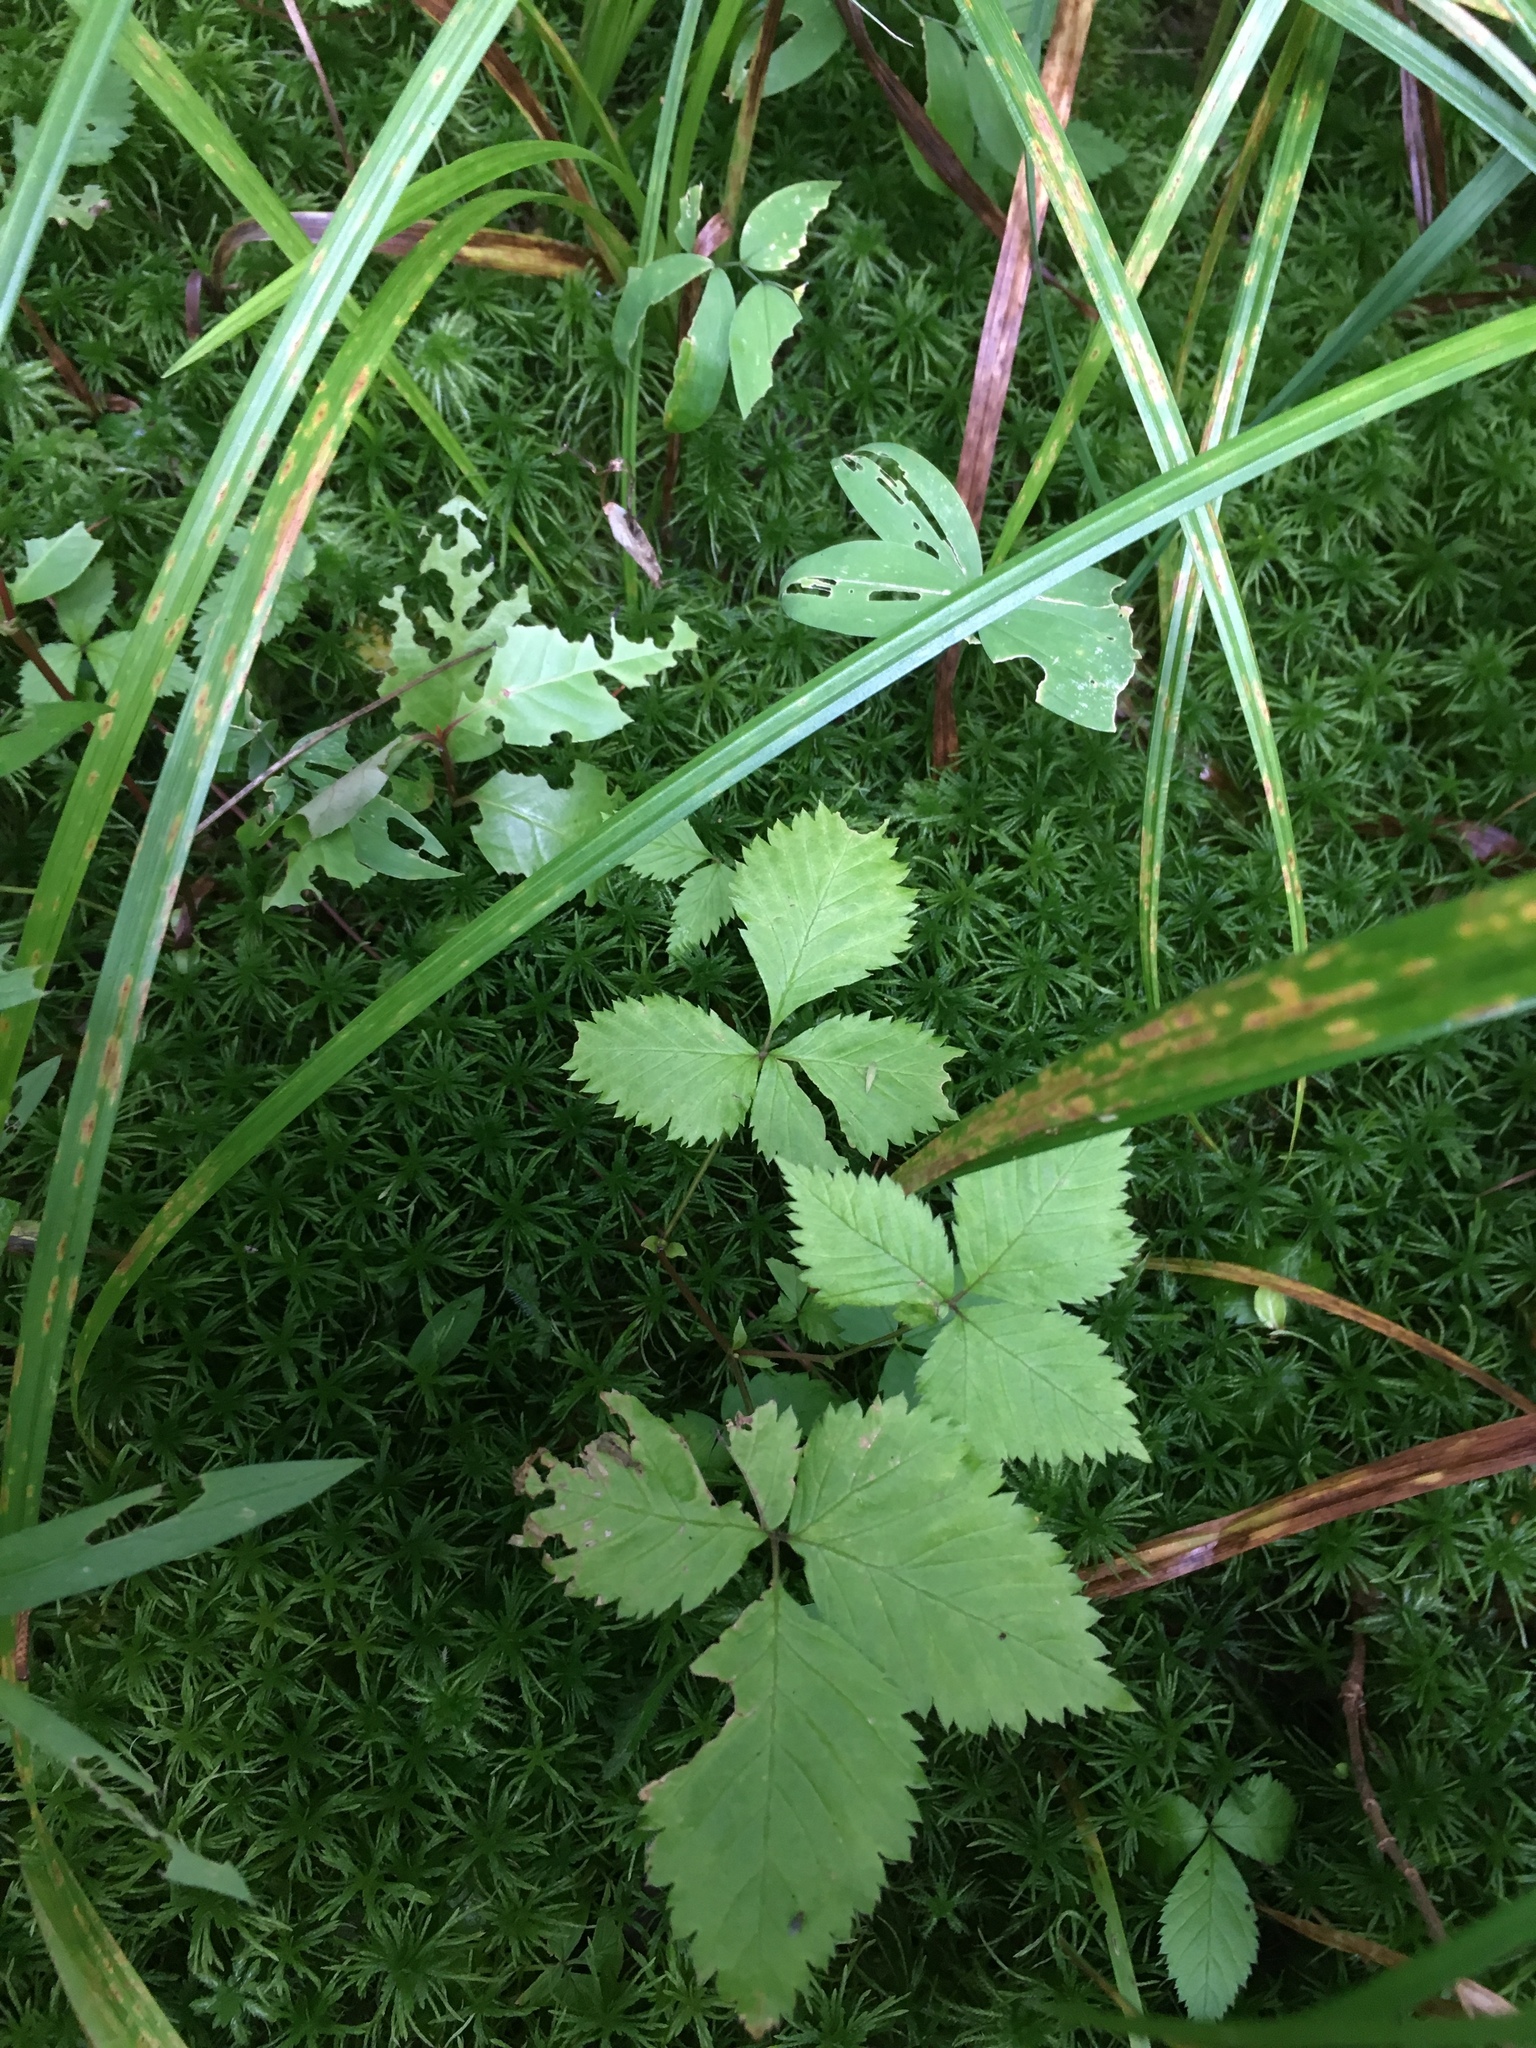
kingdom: Plantae
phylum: Tracheophyta
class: Magnoliopsida
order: Rosales
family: Rosaceae
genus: Rubus
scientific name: Rubus pubescens
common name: Dwarf raspberry
